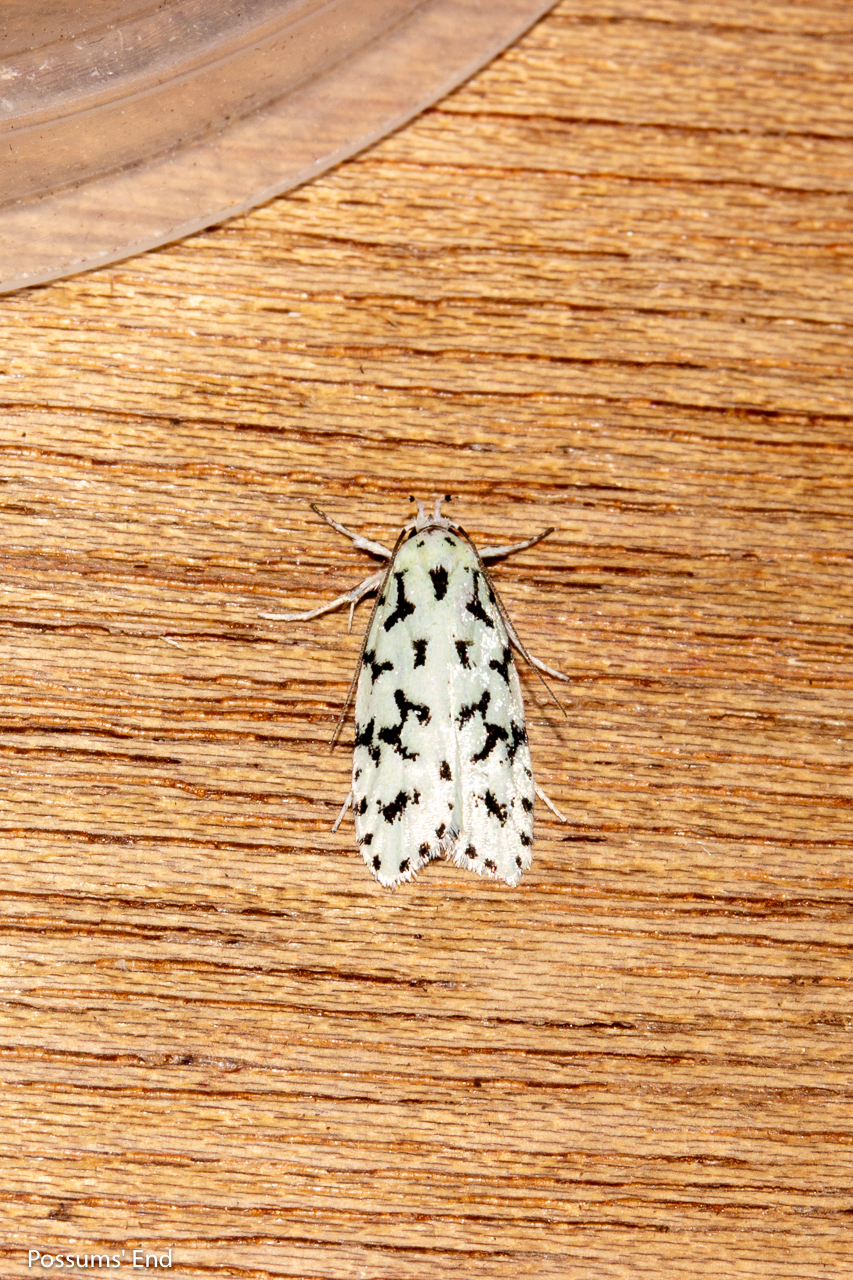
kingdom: Animalia
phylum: Arthropoda
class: Insecta
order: Lepidoptera
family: Oecophoridae
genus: Izatha
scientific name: Izatha huttoni
